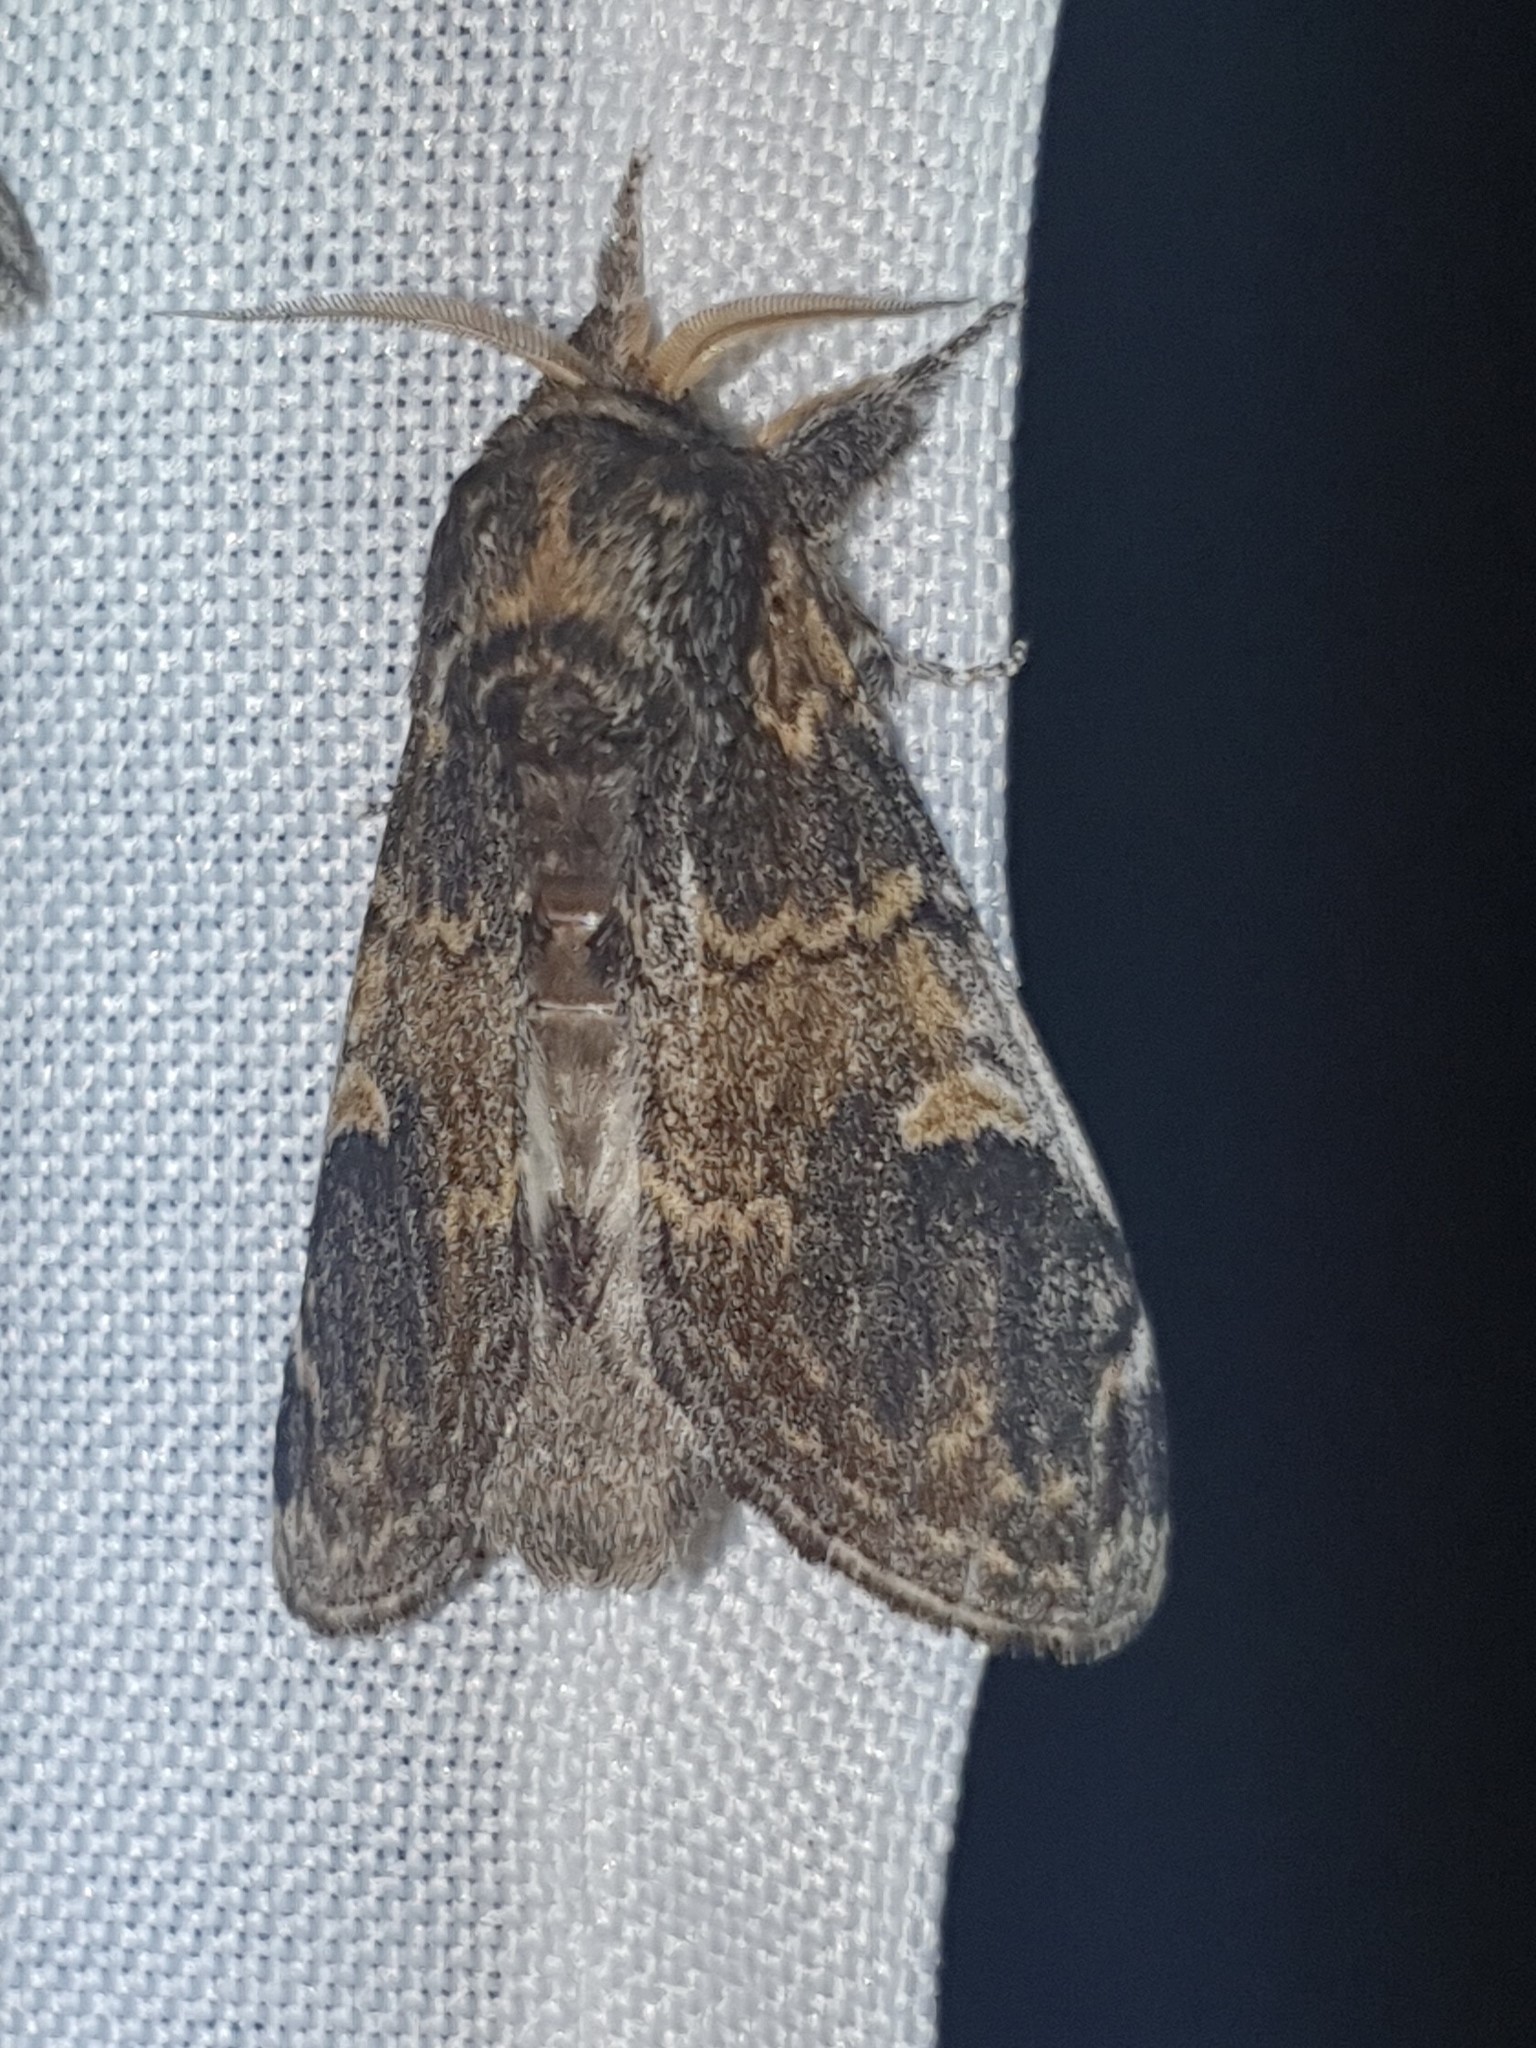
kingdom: Animalia
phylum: Arthropoda
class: Insecta
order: Lepidoptera
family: Notodontidae
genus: Notodonta
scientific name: Notodonta tritophus
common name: Three-humped prominent
